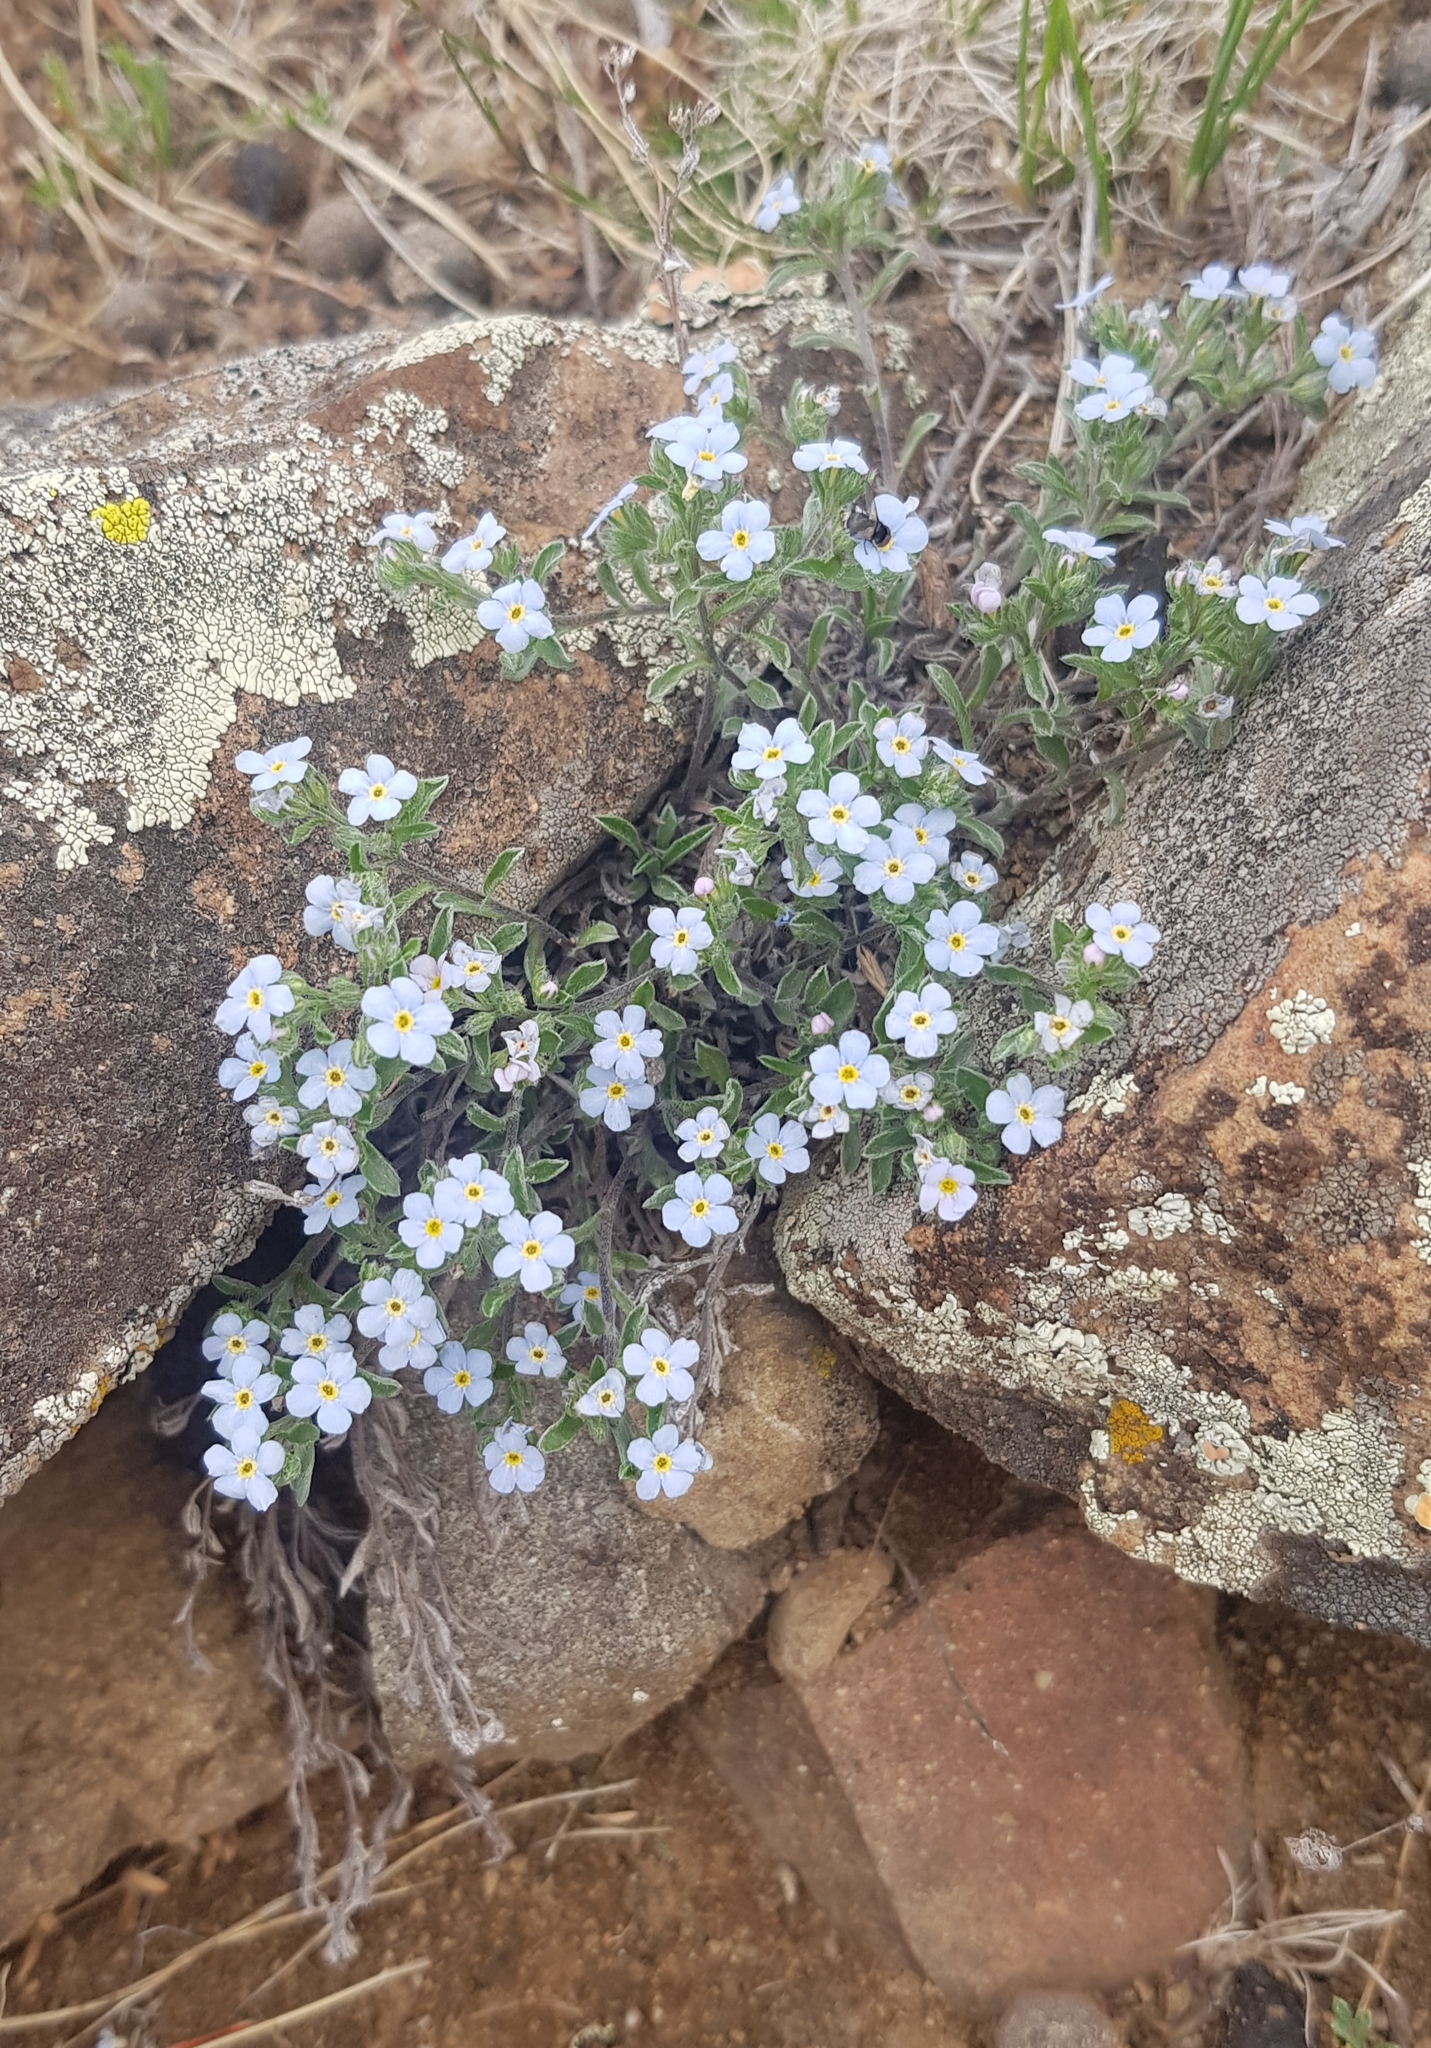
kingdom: Plantae
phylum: Tracheophyta
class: Magnoliopsida
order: Boraginales
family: Boraginaceae
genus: Eritrichium
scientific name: Eritrichium rupestre
